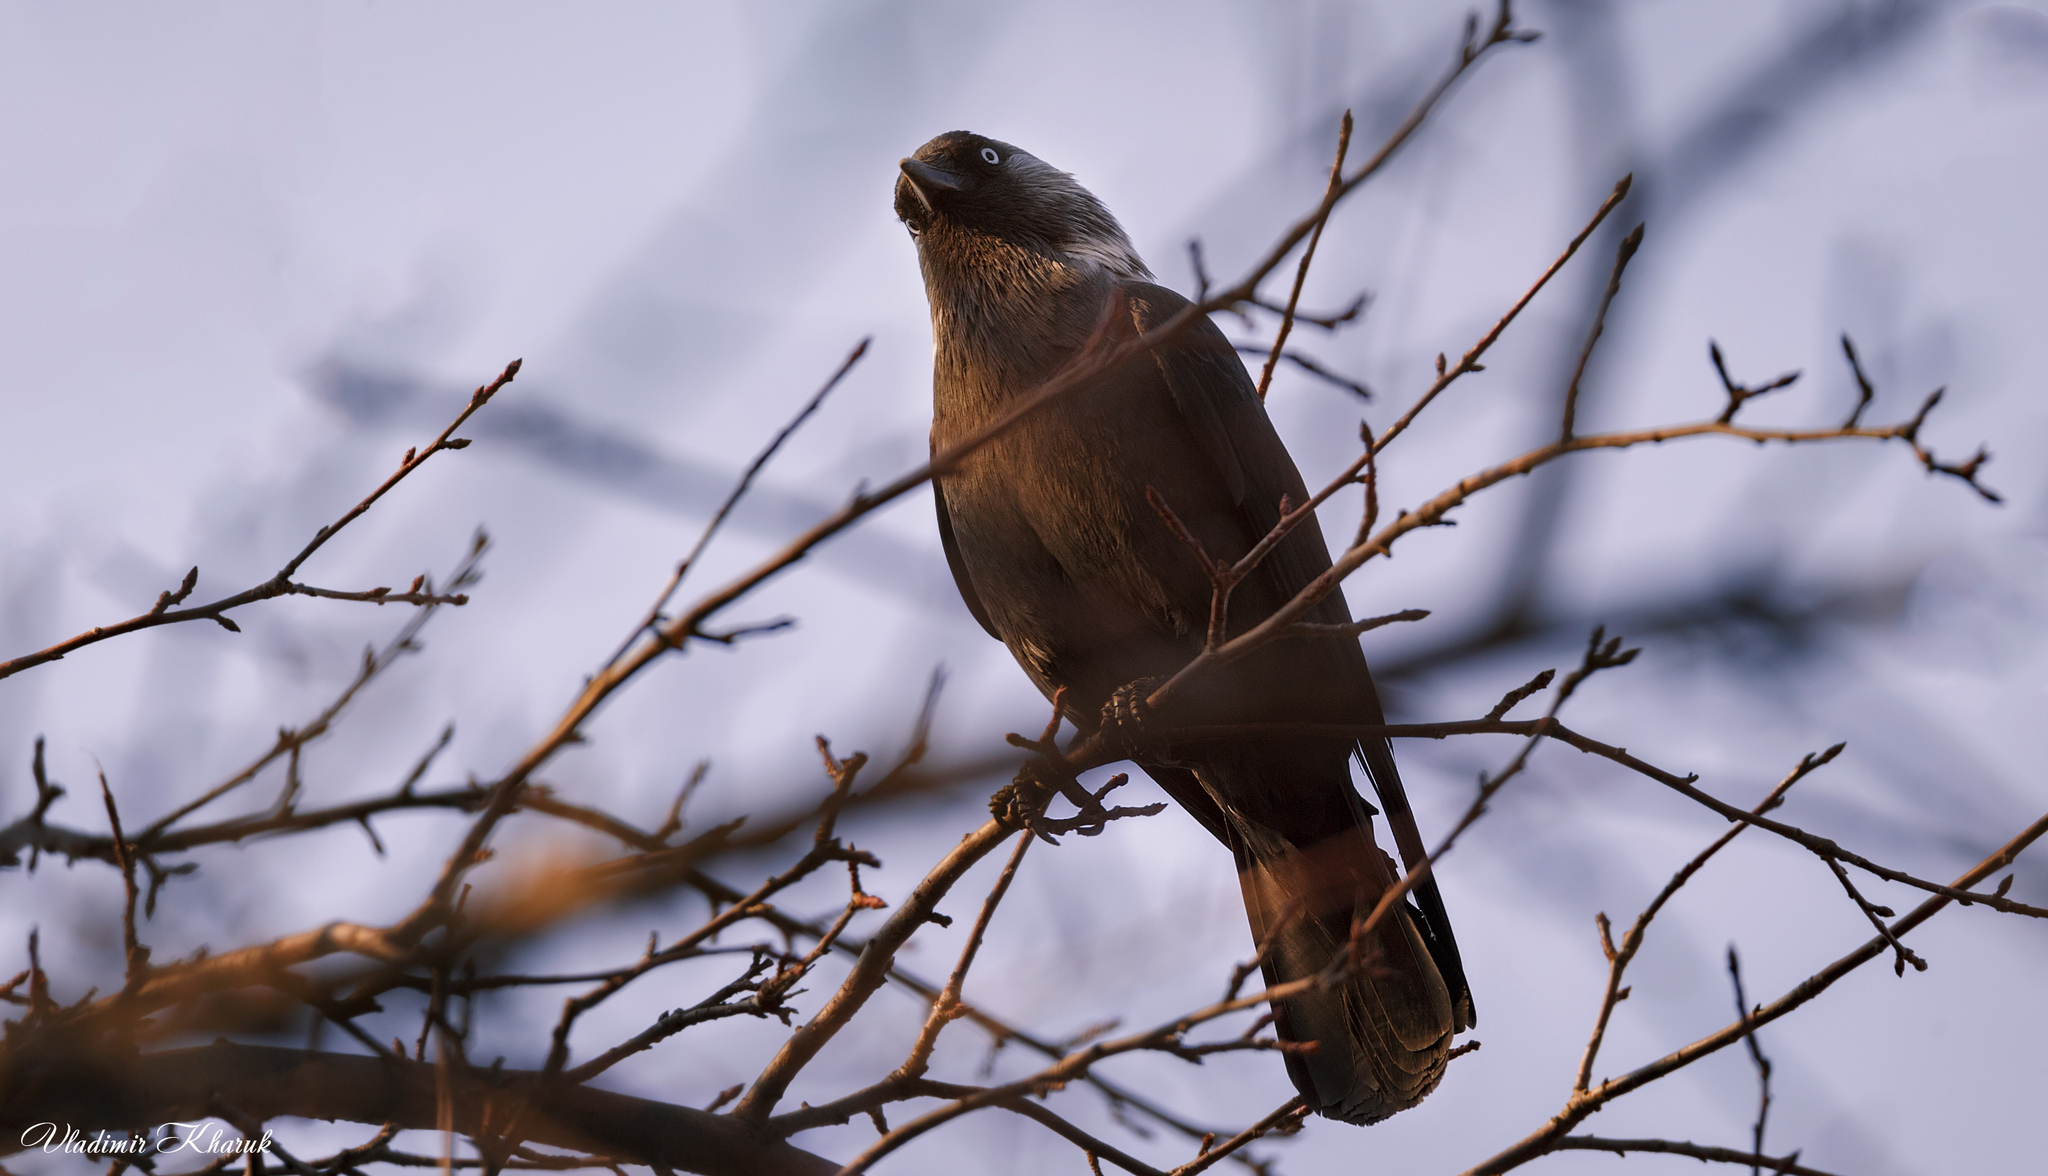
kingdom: Animalia
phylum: Chordata
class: Aves
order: Passeriformes
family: Corvidae
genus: Coloeus
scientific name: Coloeus monedula
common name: Western jackdaw
